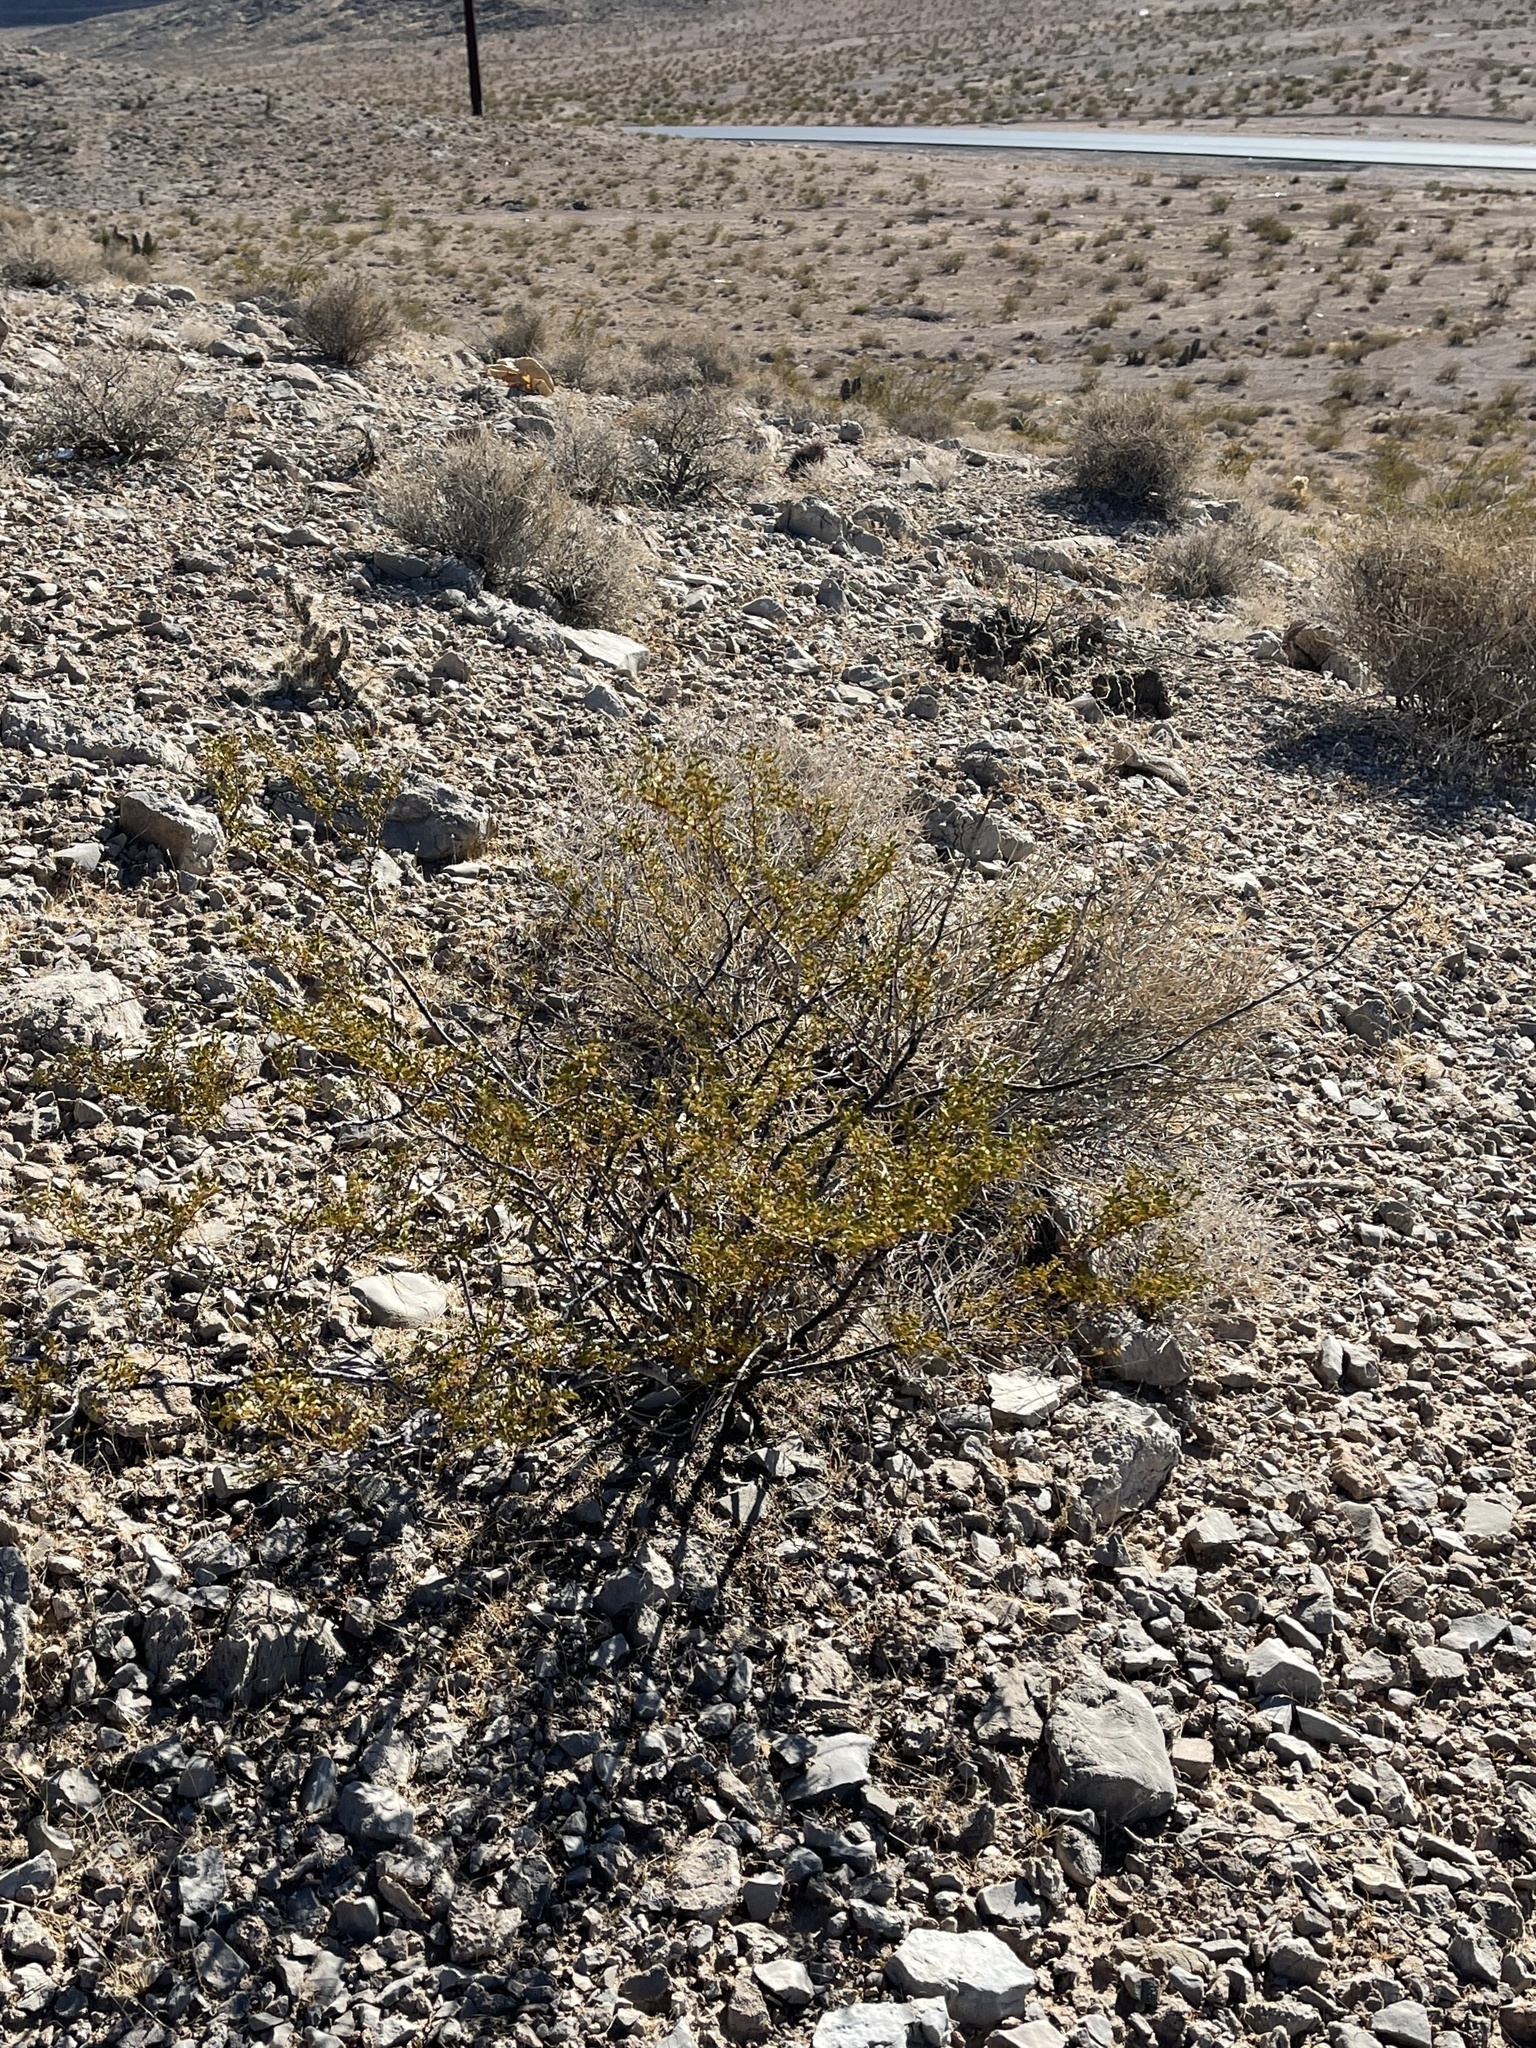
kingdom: Plantae
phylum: Tracheophyta
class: Magnoliopsida
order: Zygophyllales
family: Zygophyllaceae
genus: Larrea
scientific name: Larrea tridentata
